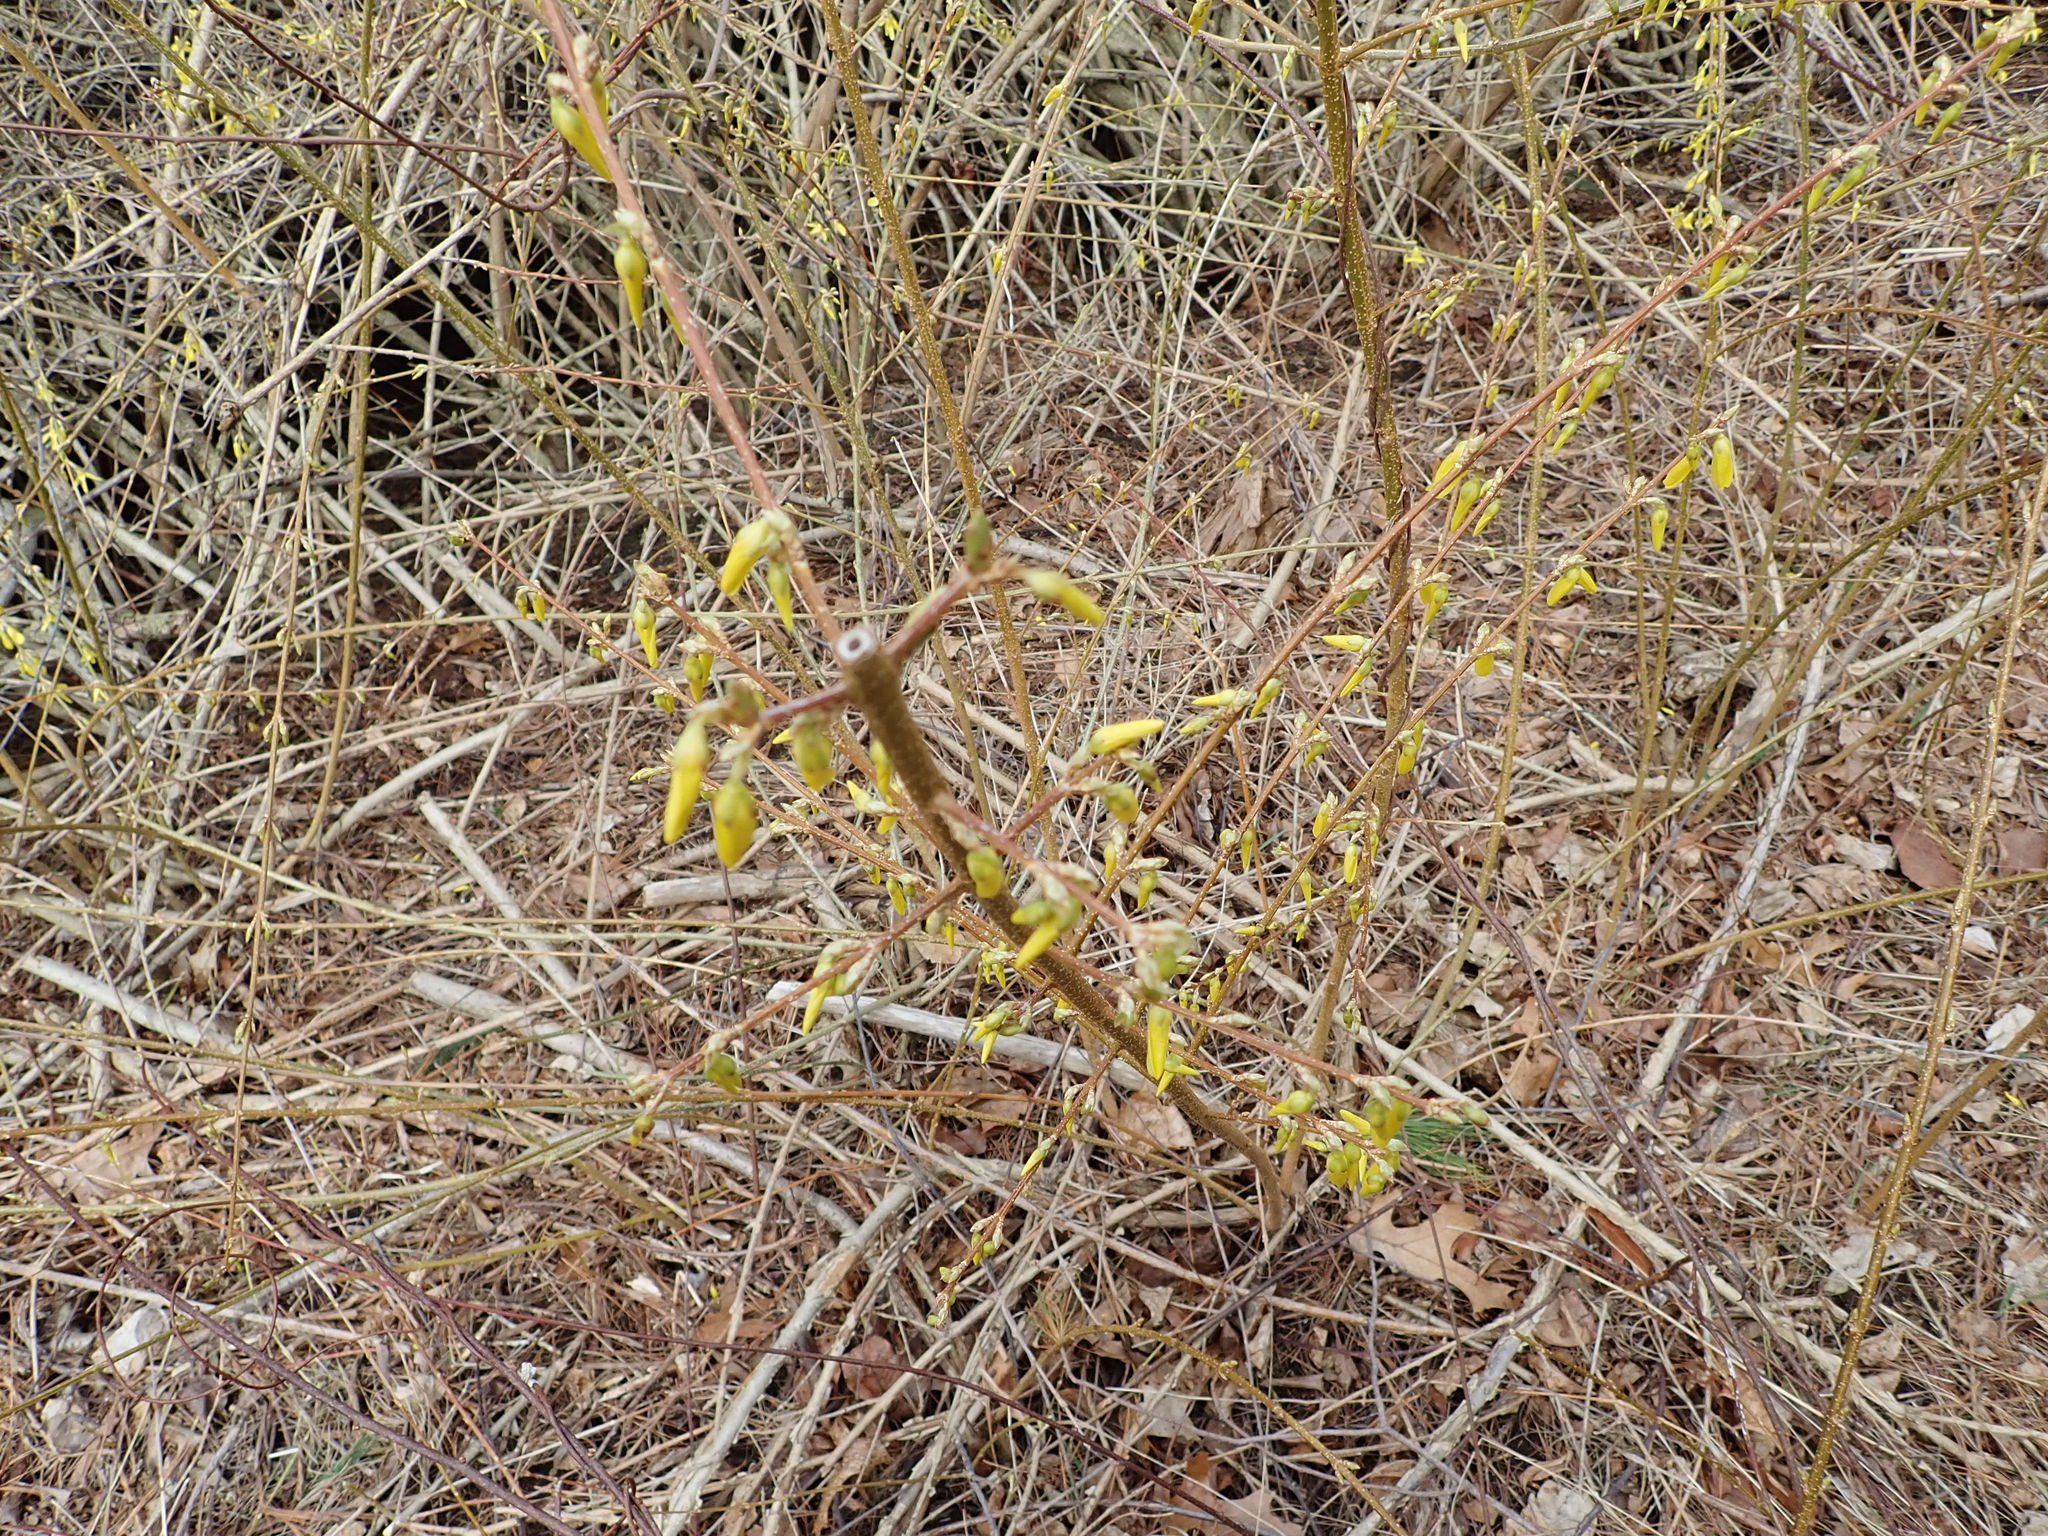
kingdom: Plantae
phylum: Tracheophyta
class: Magnoliopsida
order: Lamiales
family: Oleaceae
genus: Forsythia
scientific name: Forsythia
